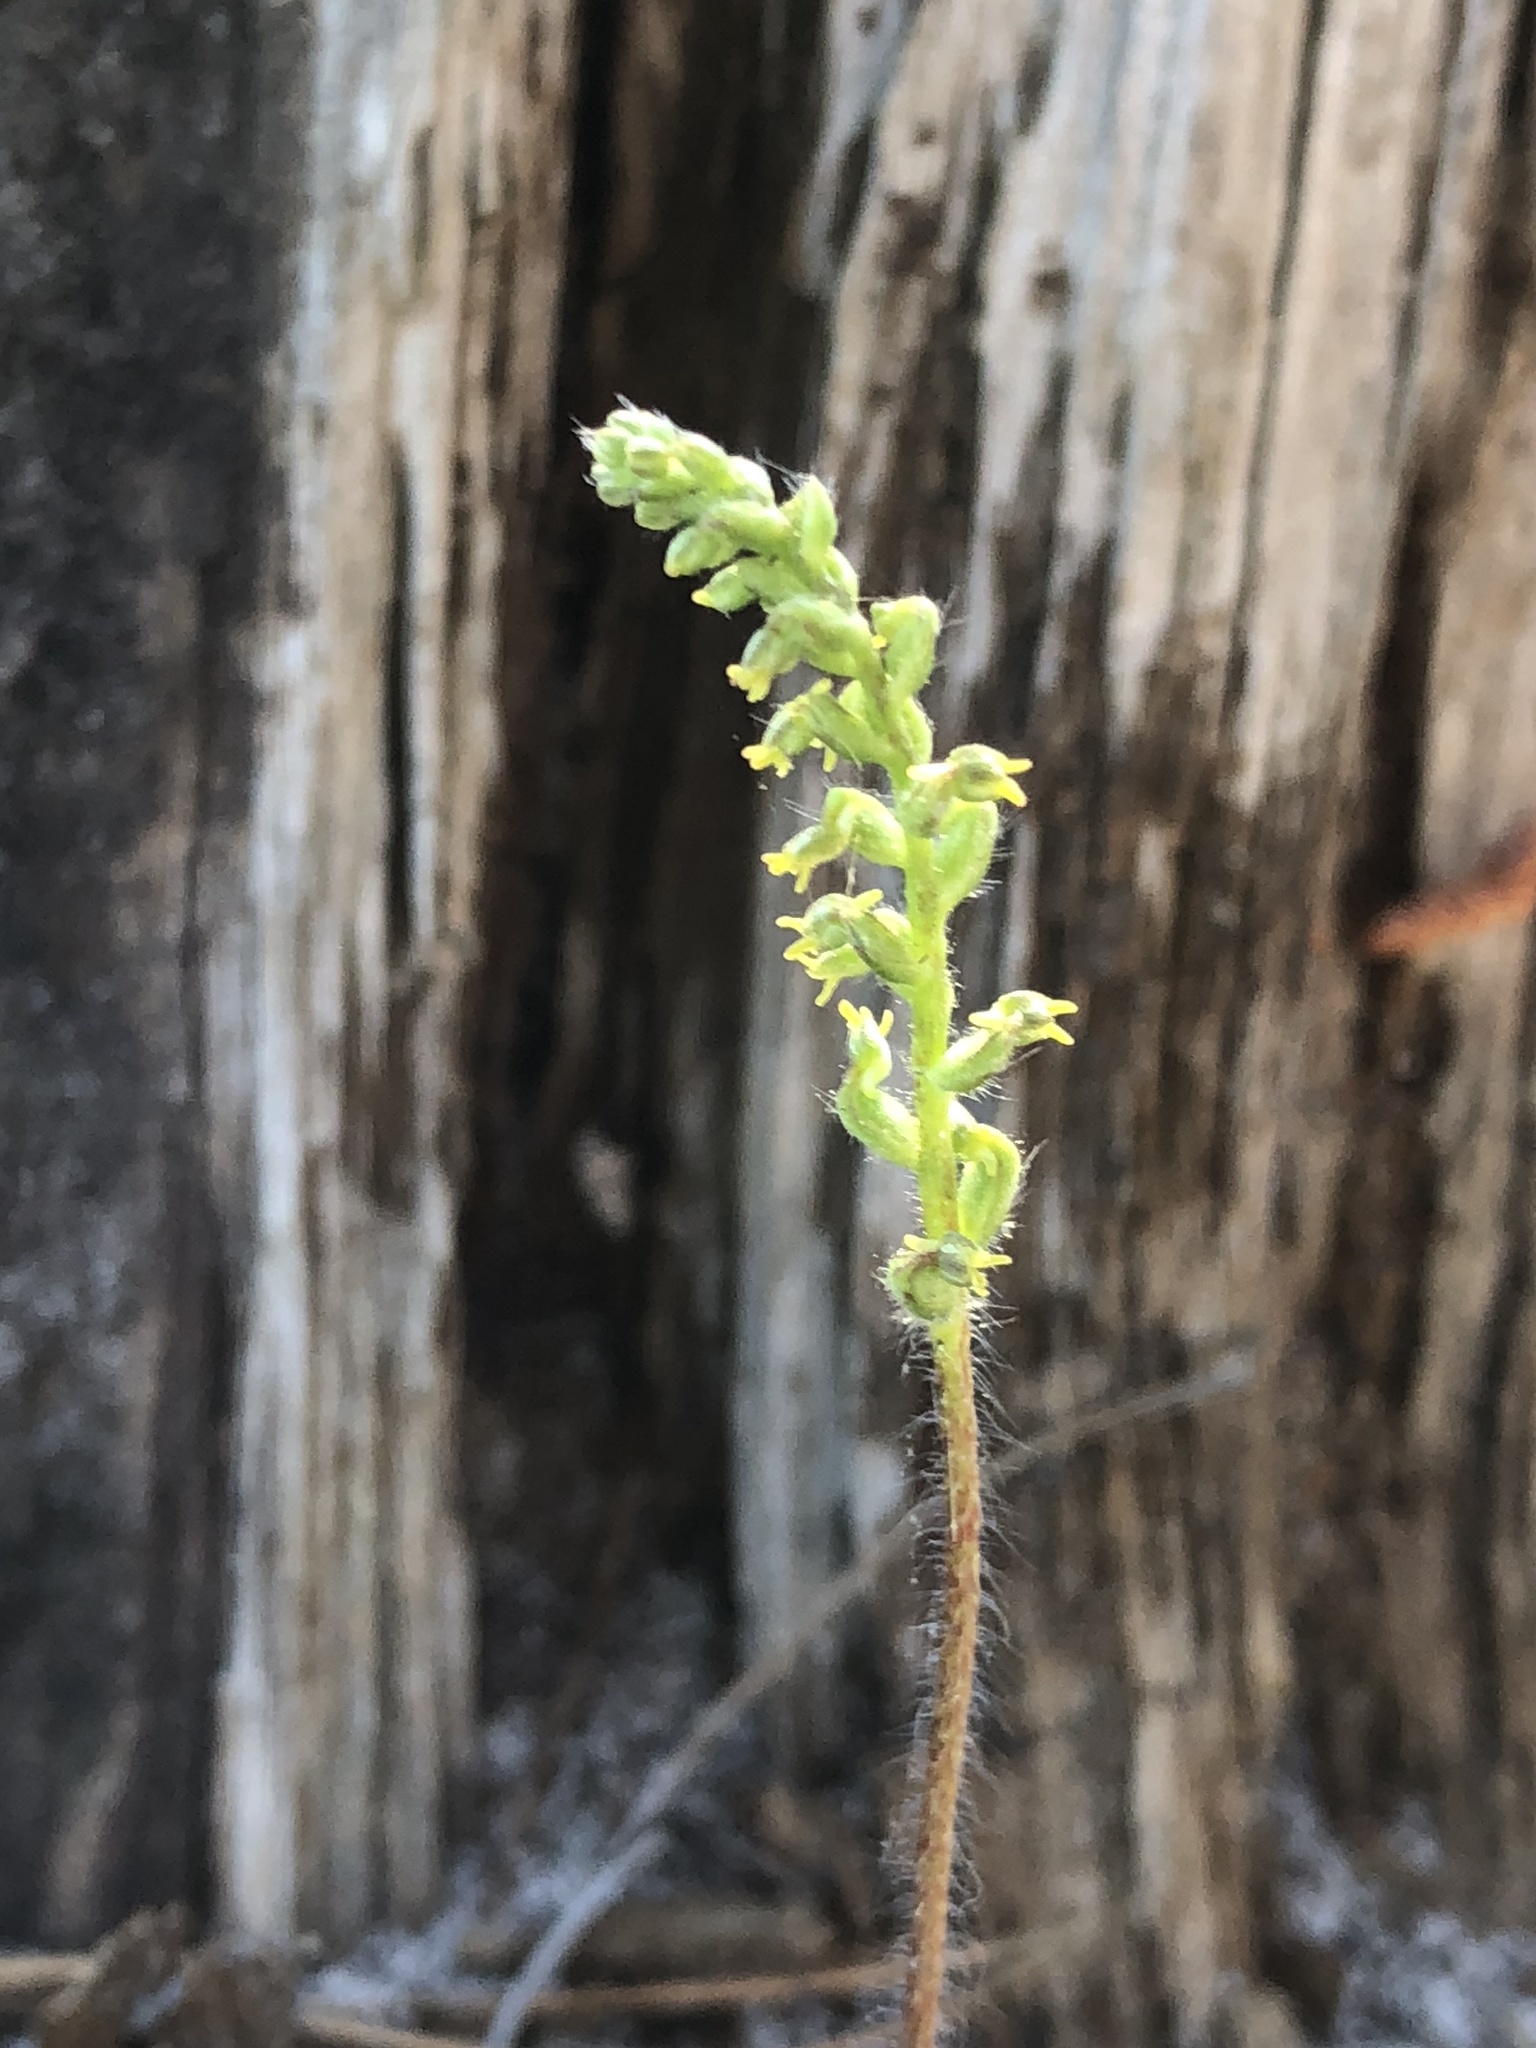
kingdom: Plantae
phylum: Tracheophyta
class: Liliopsida
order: Asparagales
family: Orchidaceae
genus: Holothrix
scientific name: Holothrix villosa
